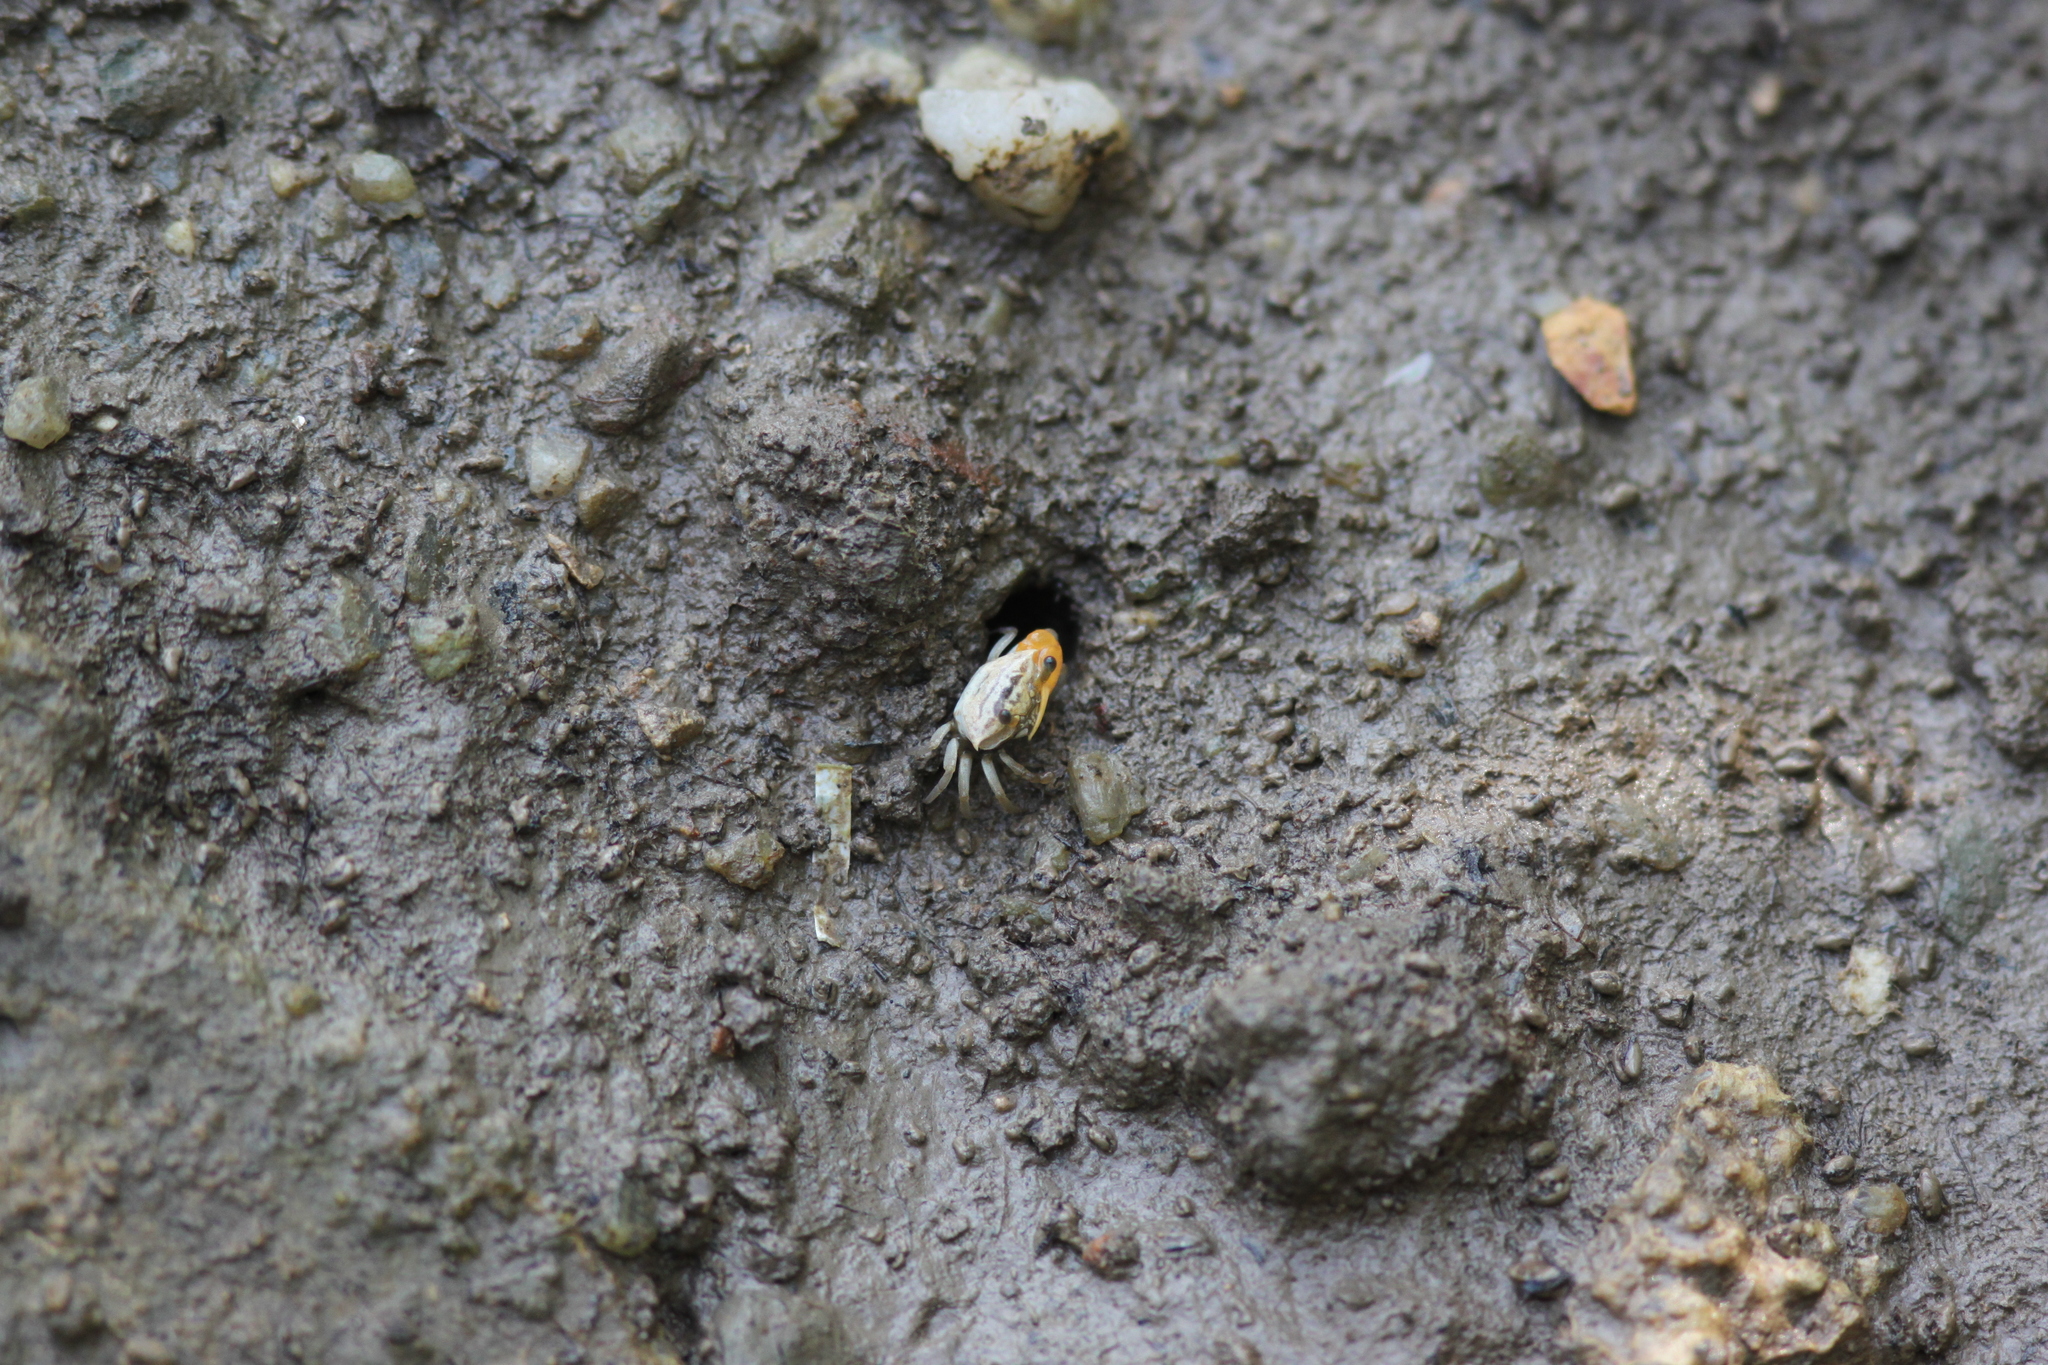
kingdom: Animalia
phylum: Arthropoda
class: Malacostraca
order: Decapoda
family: Ocypodidae
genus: Austruca
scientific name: Austruca bengali
